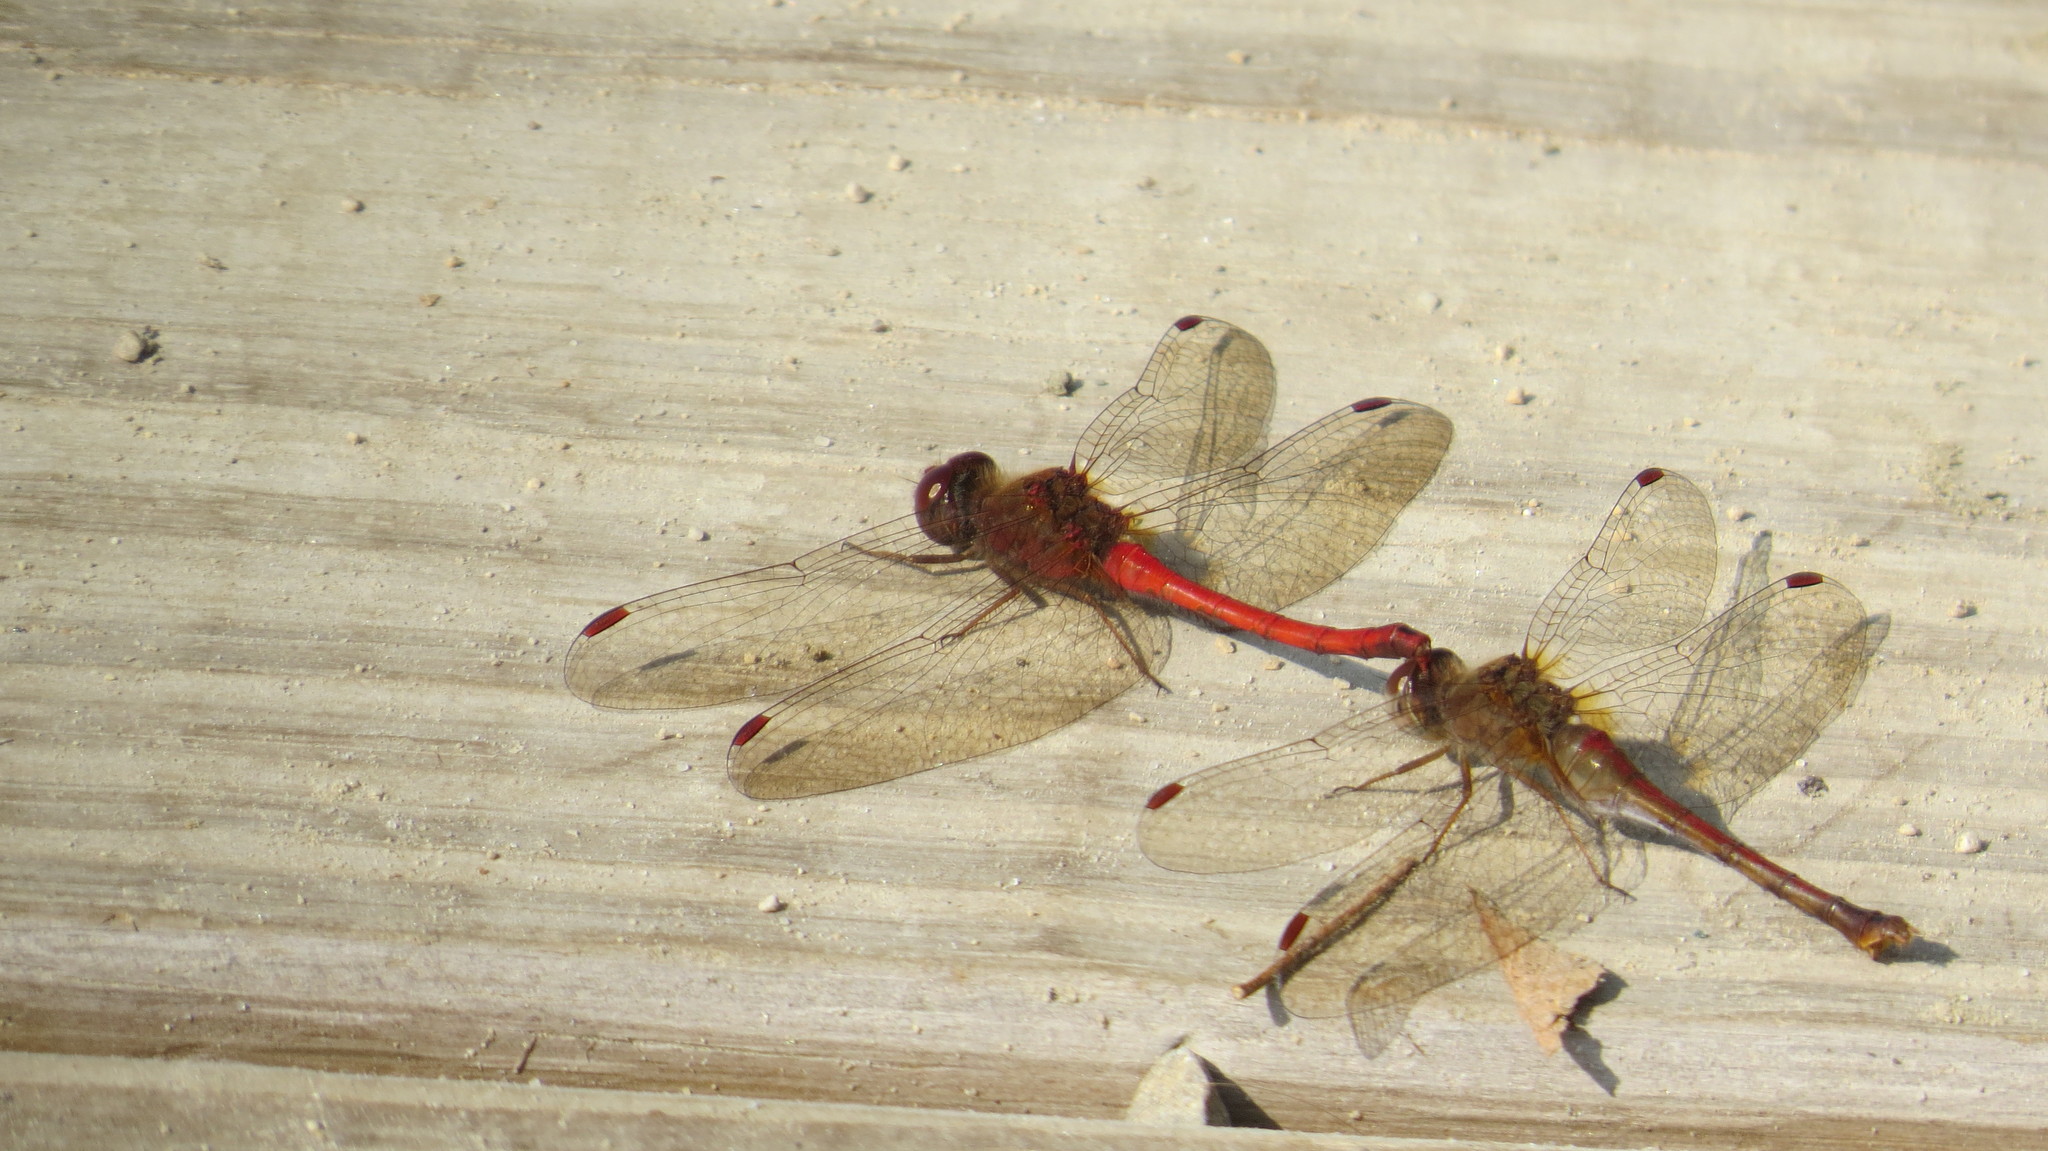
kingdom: Animalia
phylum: Arthropoda
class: Insecta
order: Odonata
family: Libellulidae
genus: Sympetrum
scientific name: Sympetrum vicinum
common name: Autumn meadowhawk
